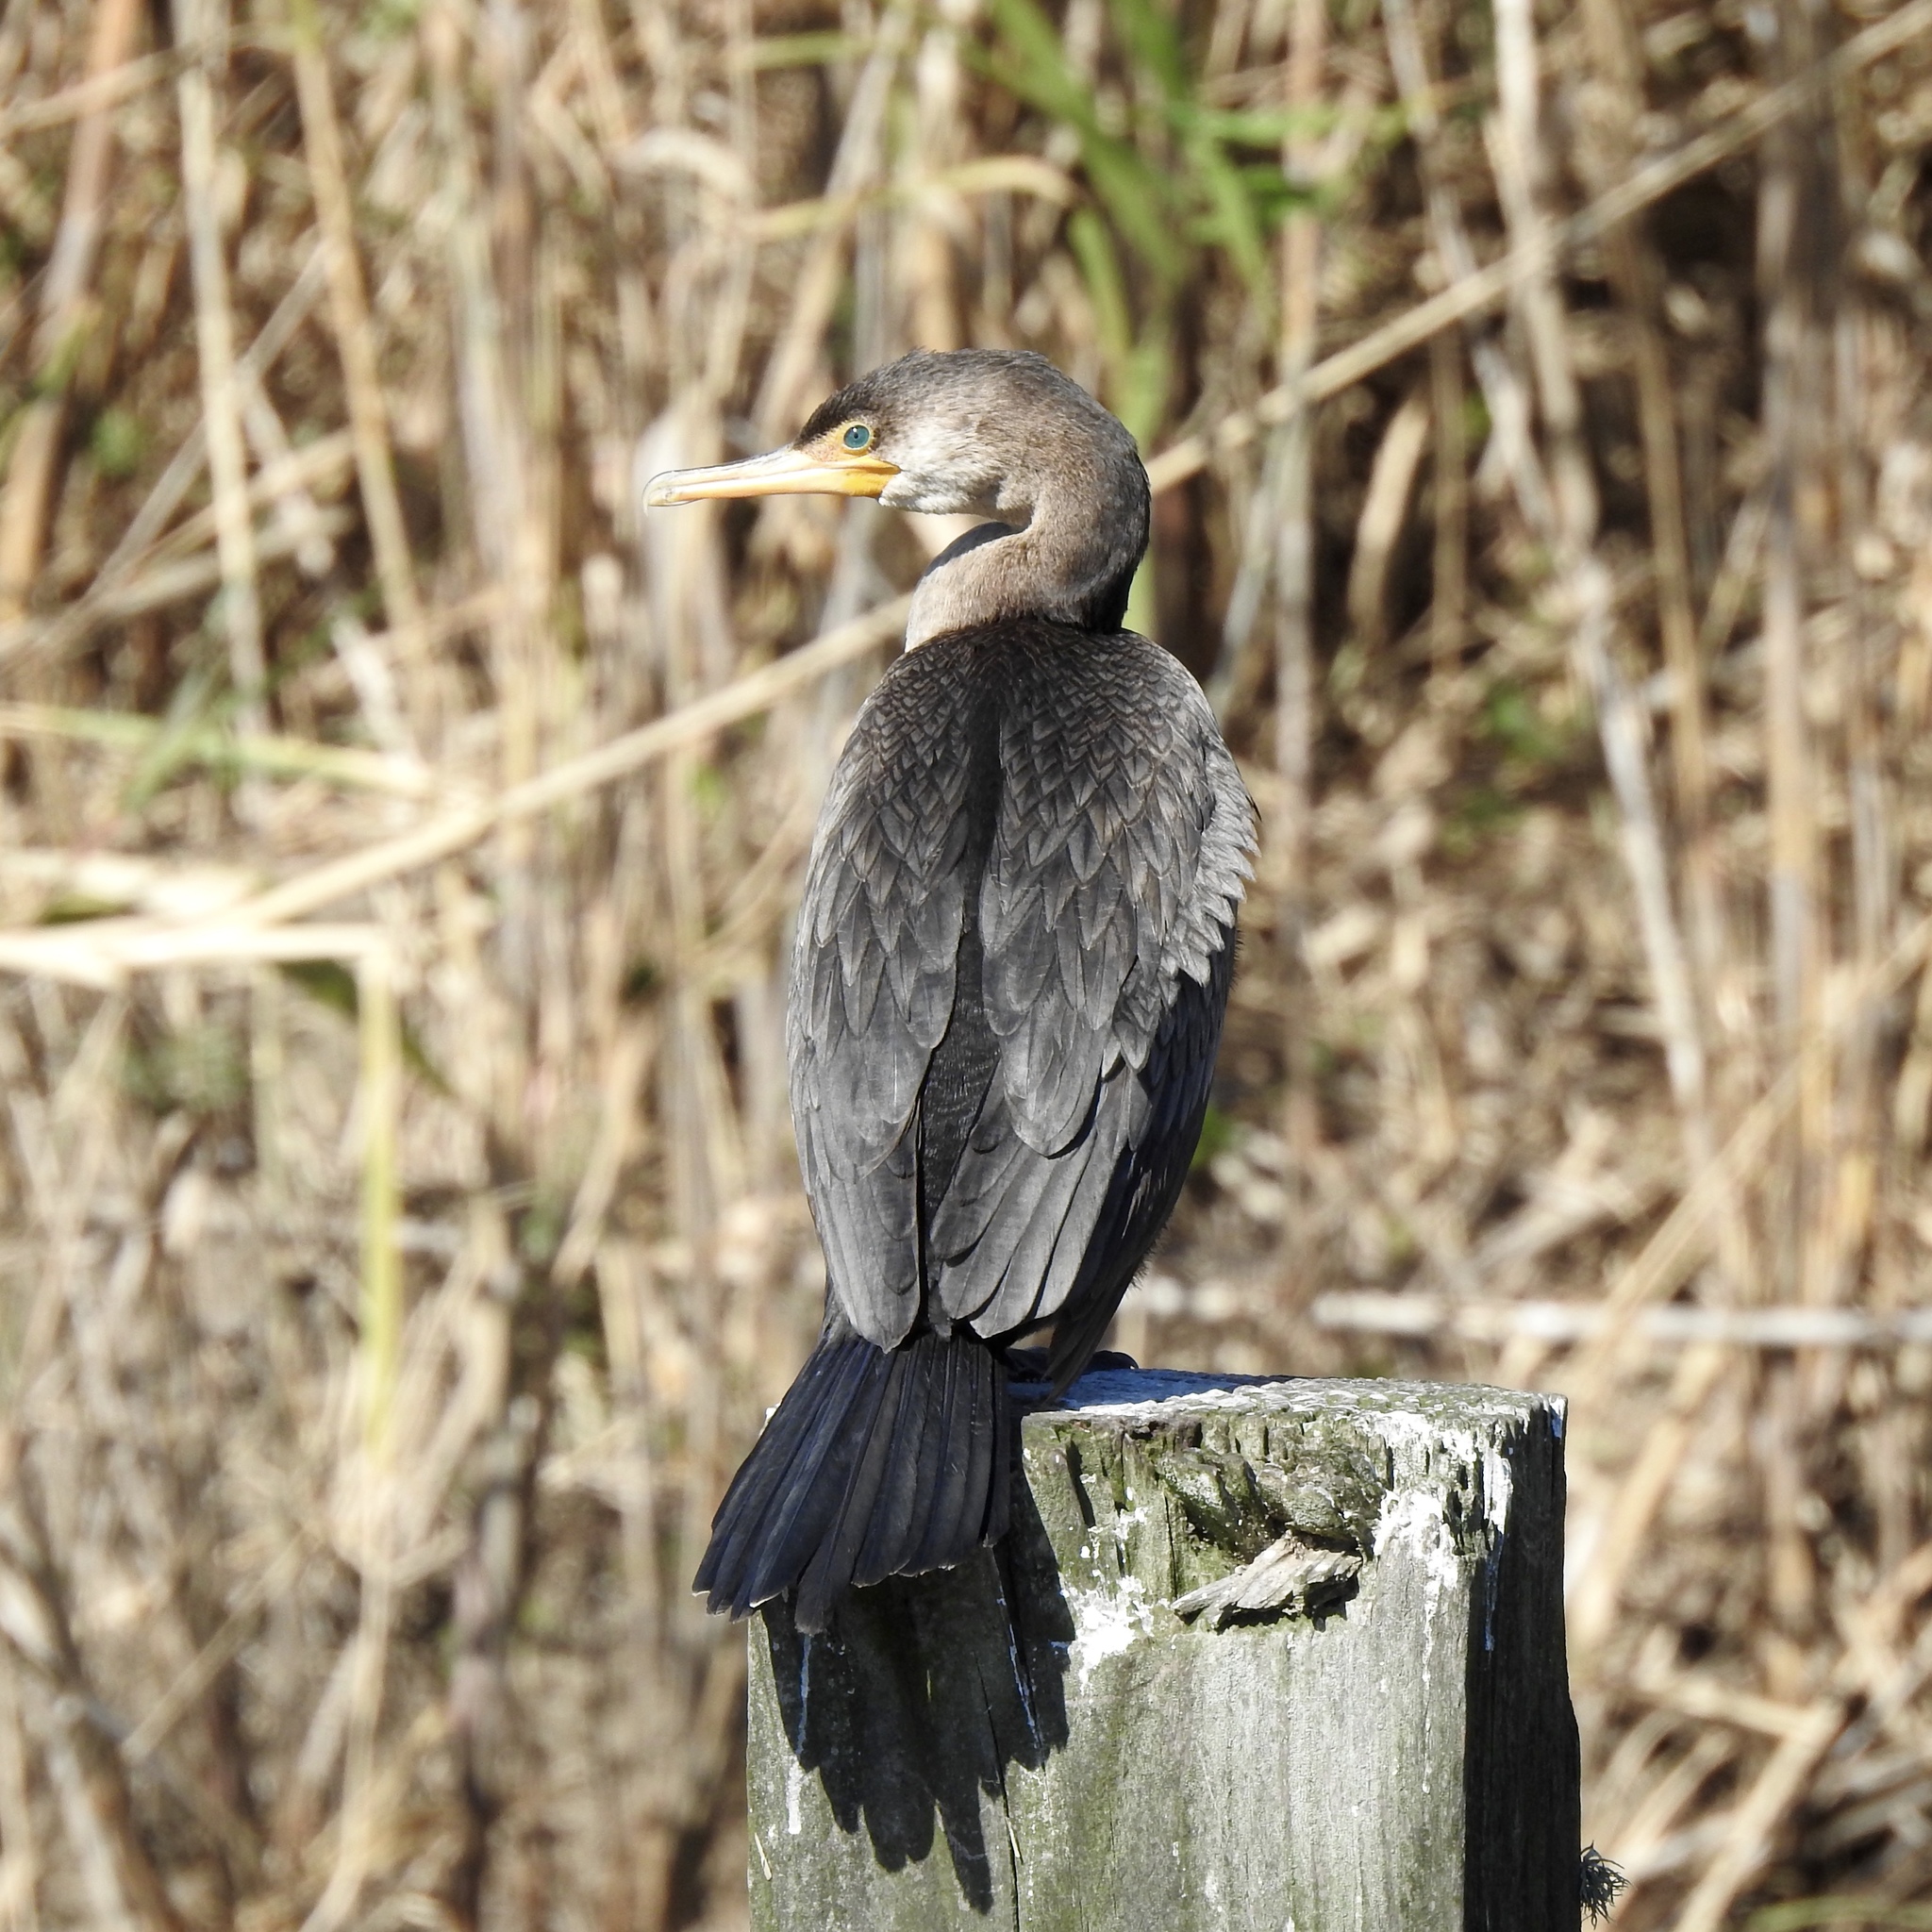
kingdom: Animalia
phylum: Chordata
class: Aves
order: Suliformes
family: Phalacrocoracidae
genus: Phalacrocorax
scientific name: Phalacrocorax auritus
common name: Double-crested cormorant
